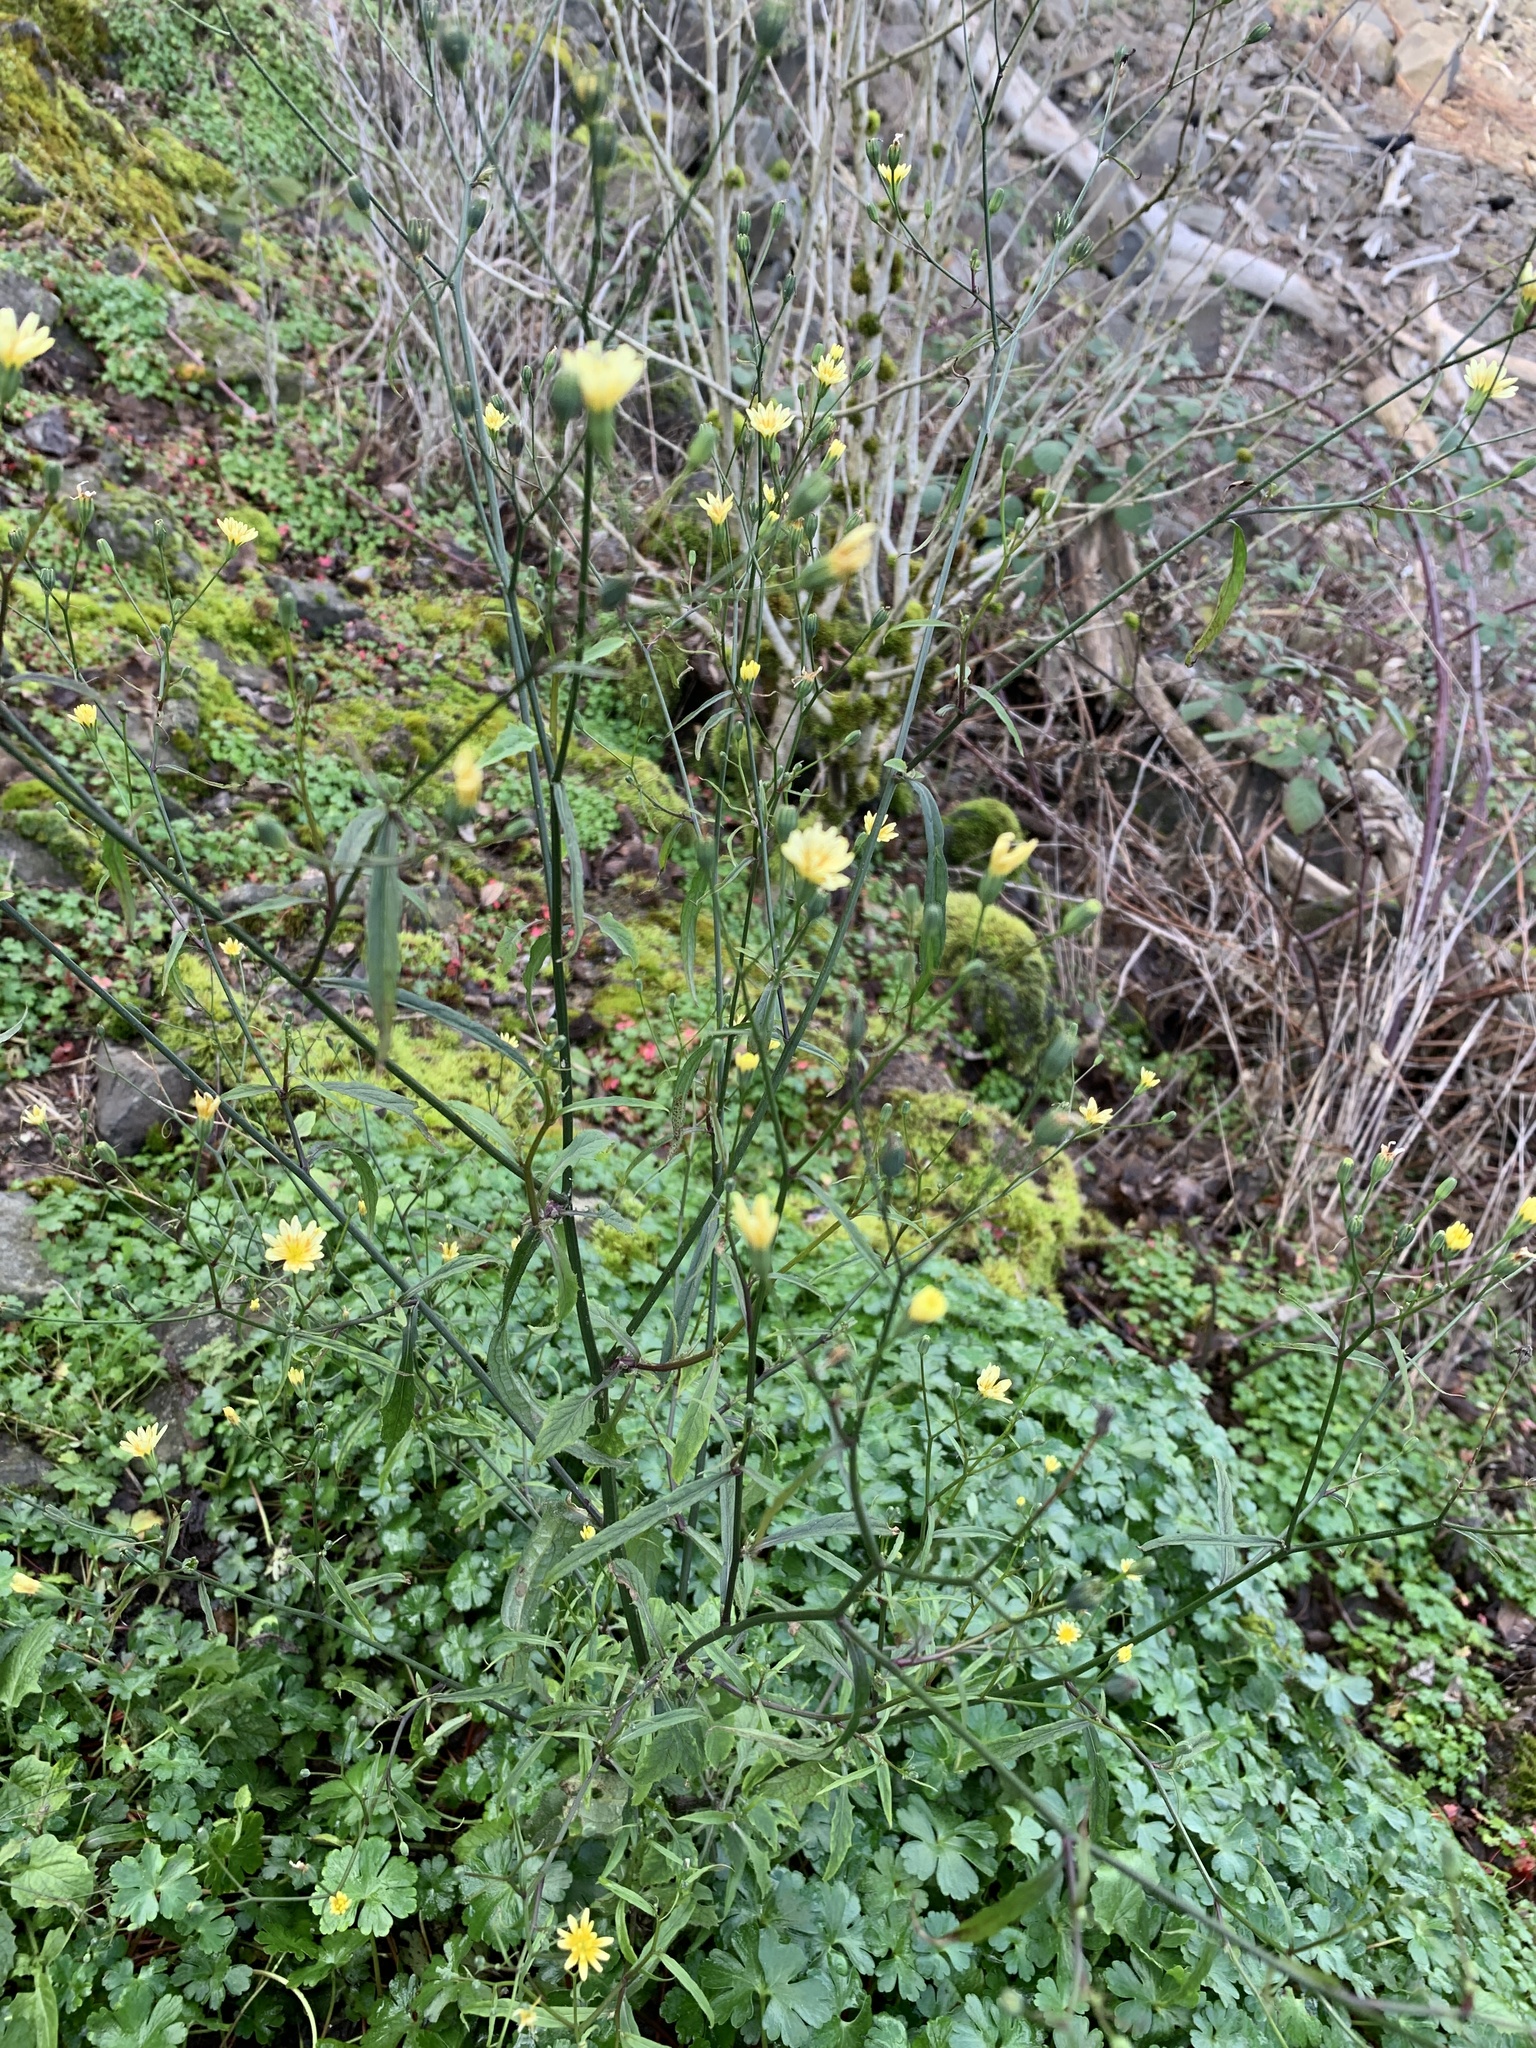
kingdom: Plantae
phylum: Tracheophyta
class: Magnoliopsida
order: Asterales
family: Asteraceae
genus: Lapsana
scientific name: Lapsana communis
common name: Nipplewort
